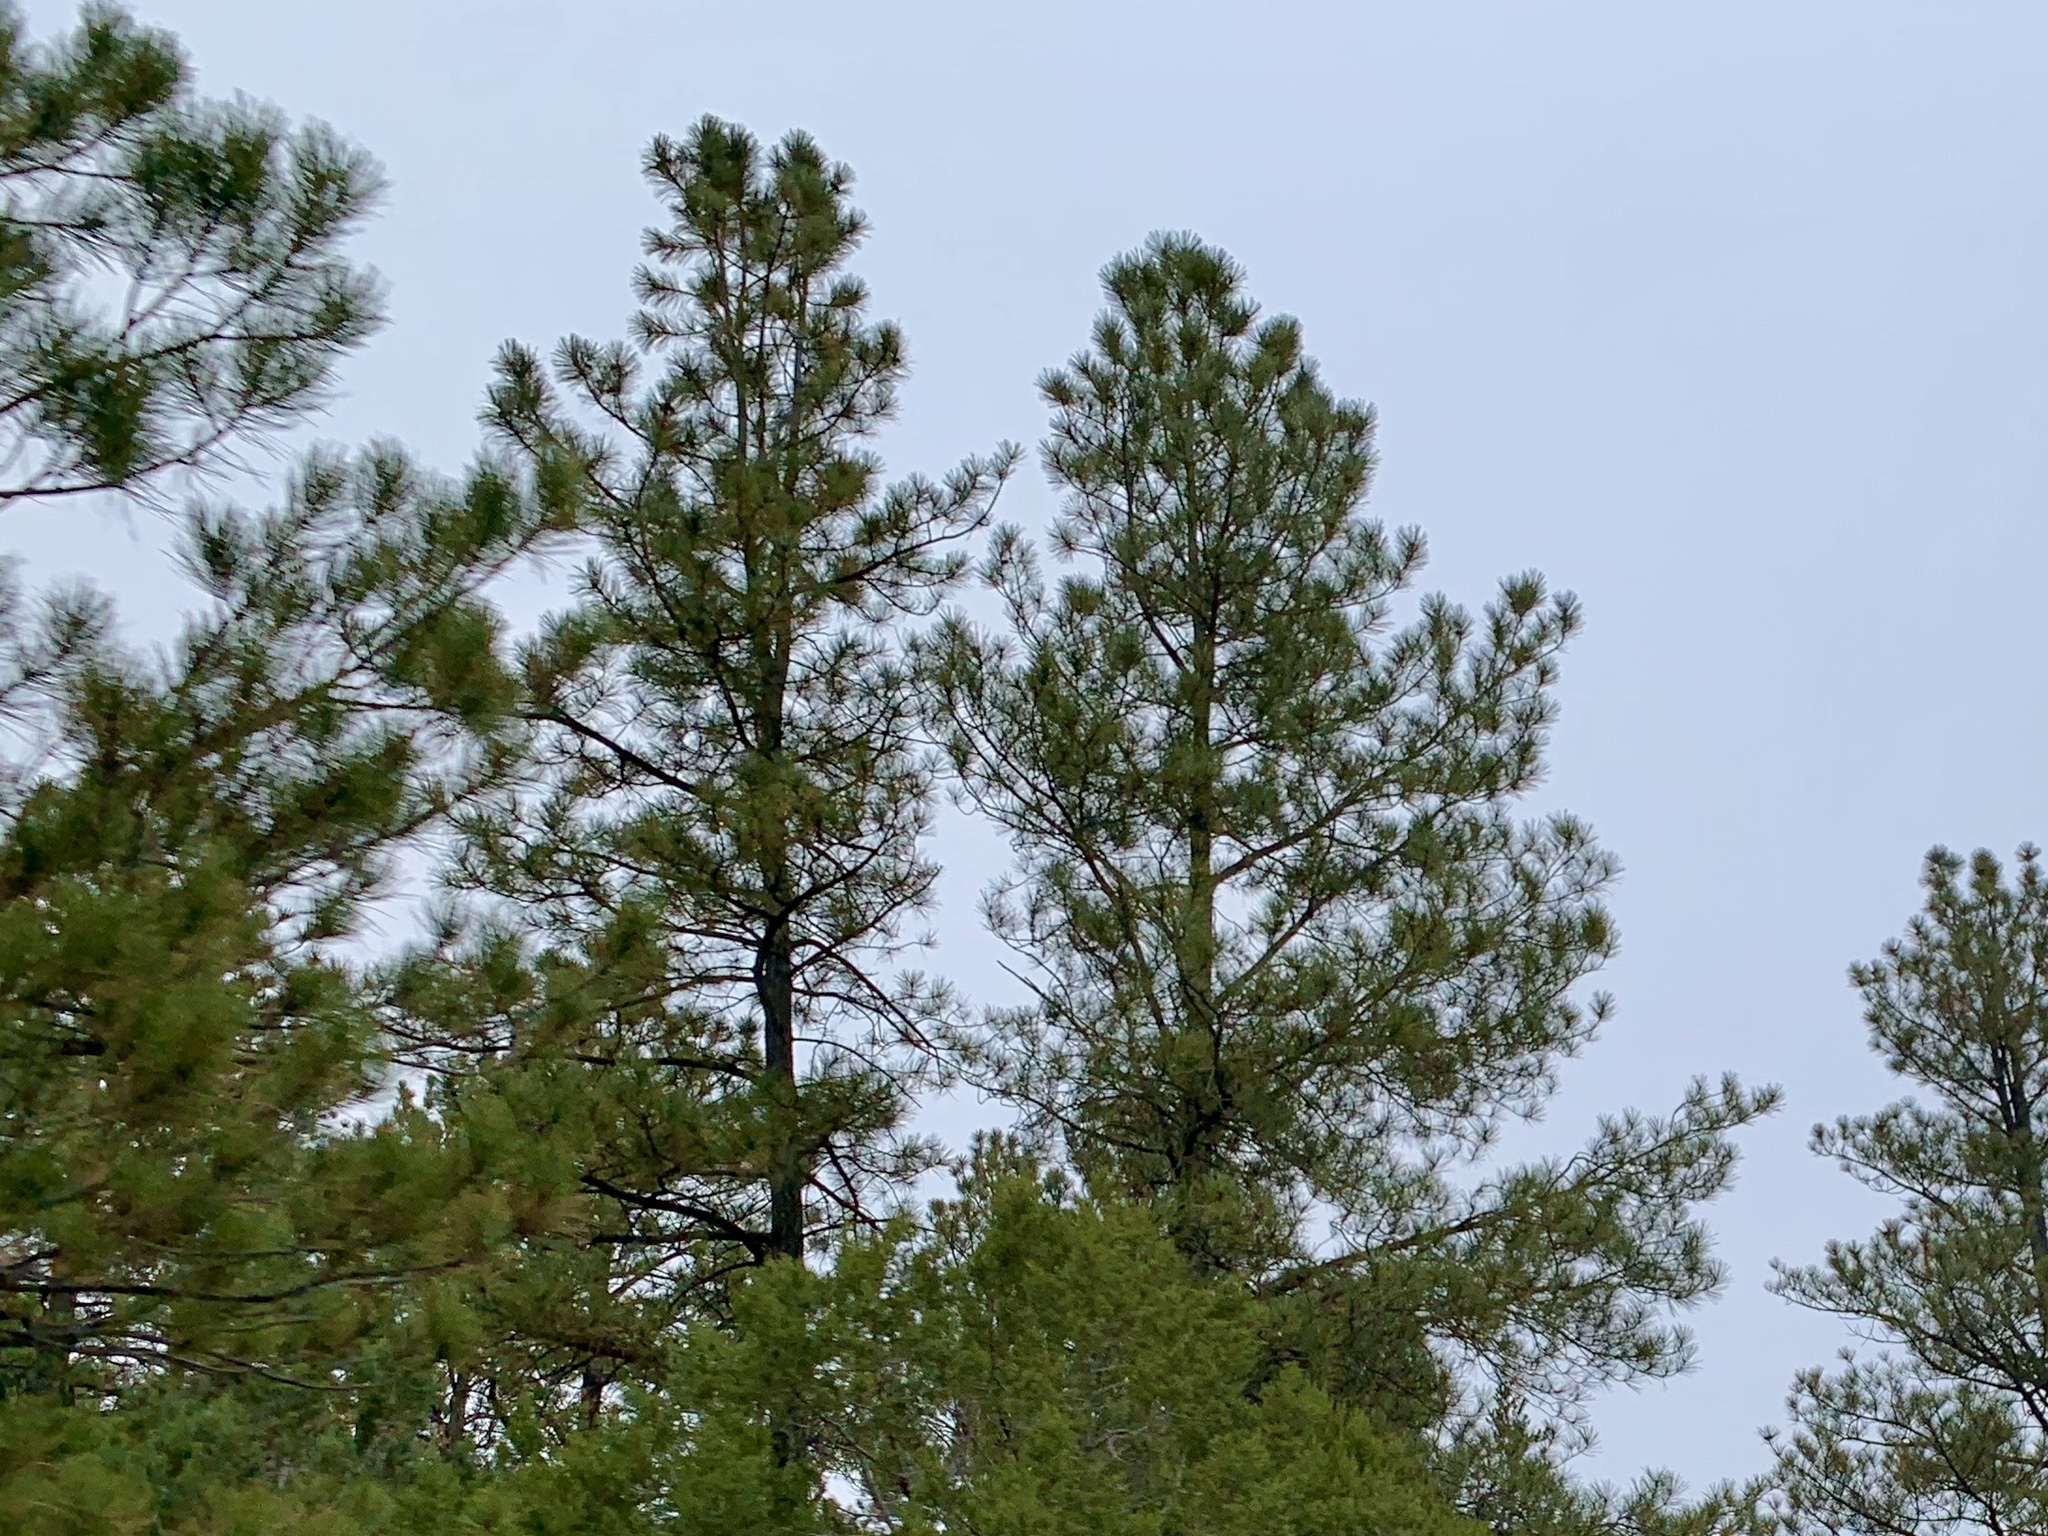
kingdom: Plantae
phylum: Tracheophyta
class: Pinopsida
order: Pinales
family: Pinaceae
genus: Pinus
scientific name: Pinus ponderosa
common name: Western yellow-pine
